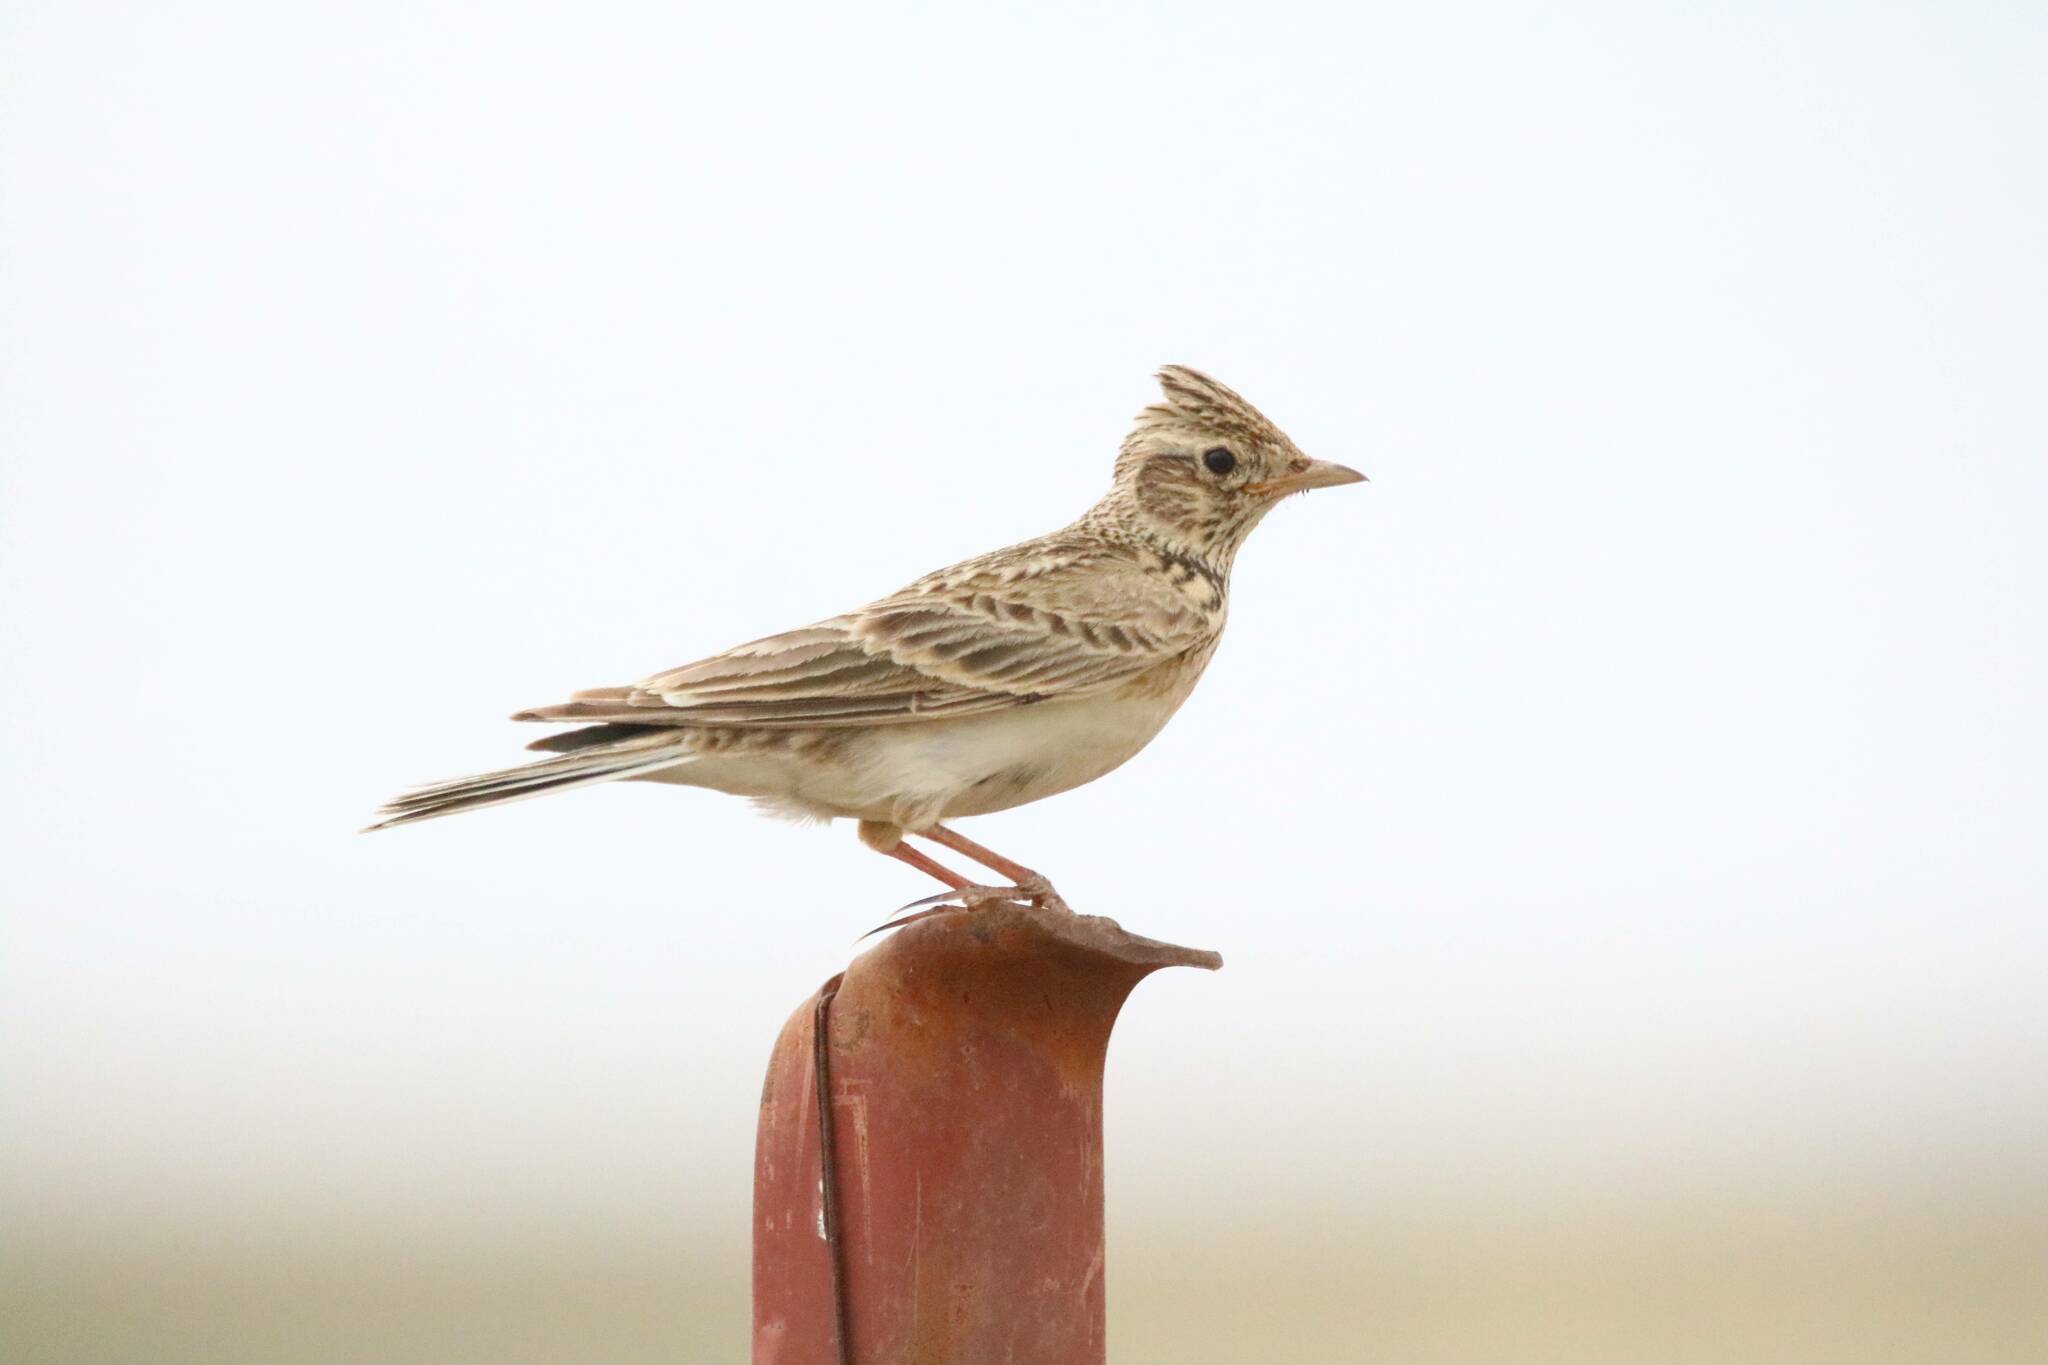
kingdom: Animalia
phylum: Chordata
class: Aves
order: Passeriformes
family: Alaudidae
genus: Alauda
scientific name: Alauda arvensis
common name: Eurasian skylark
